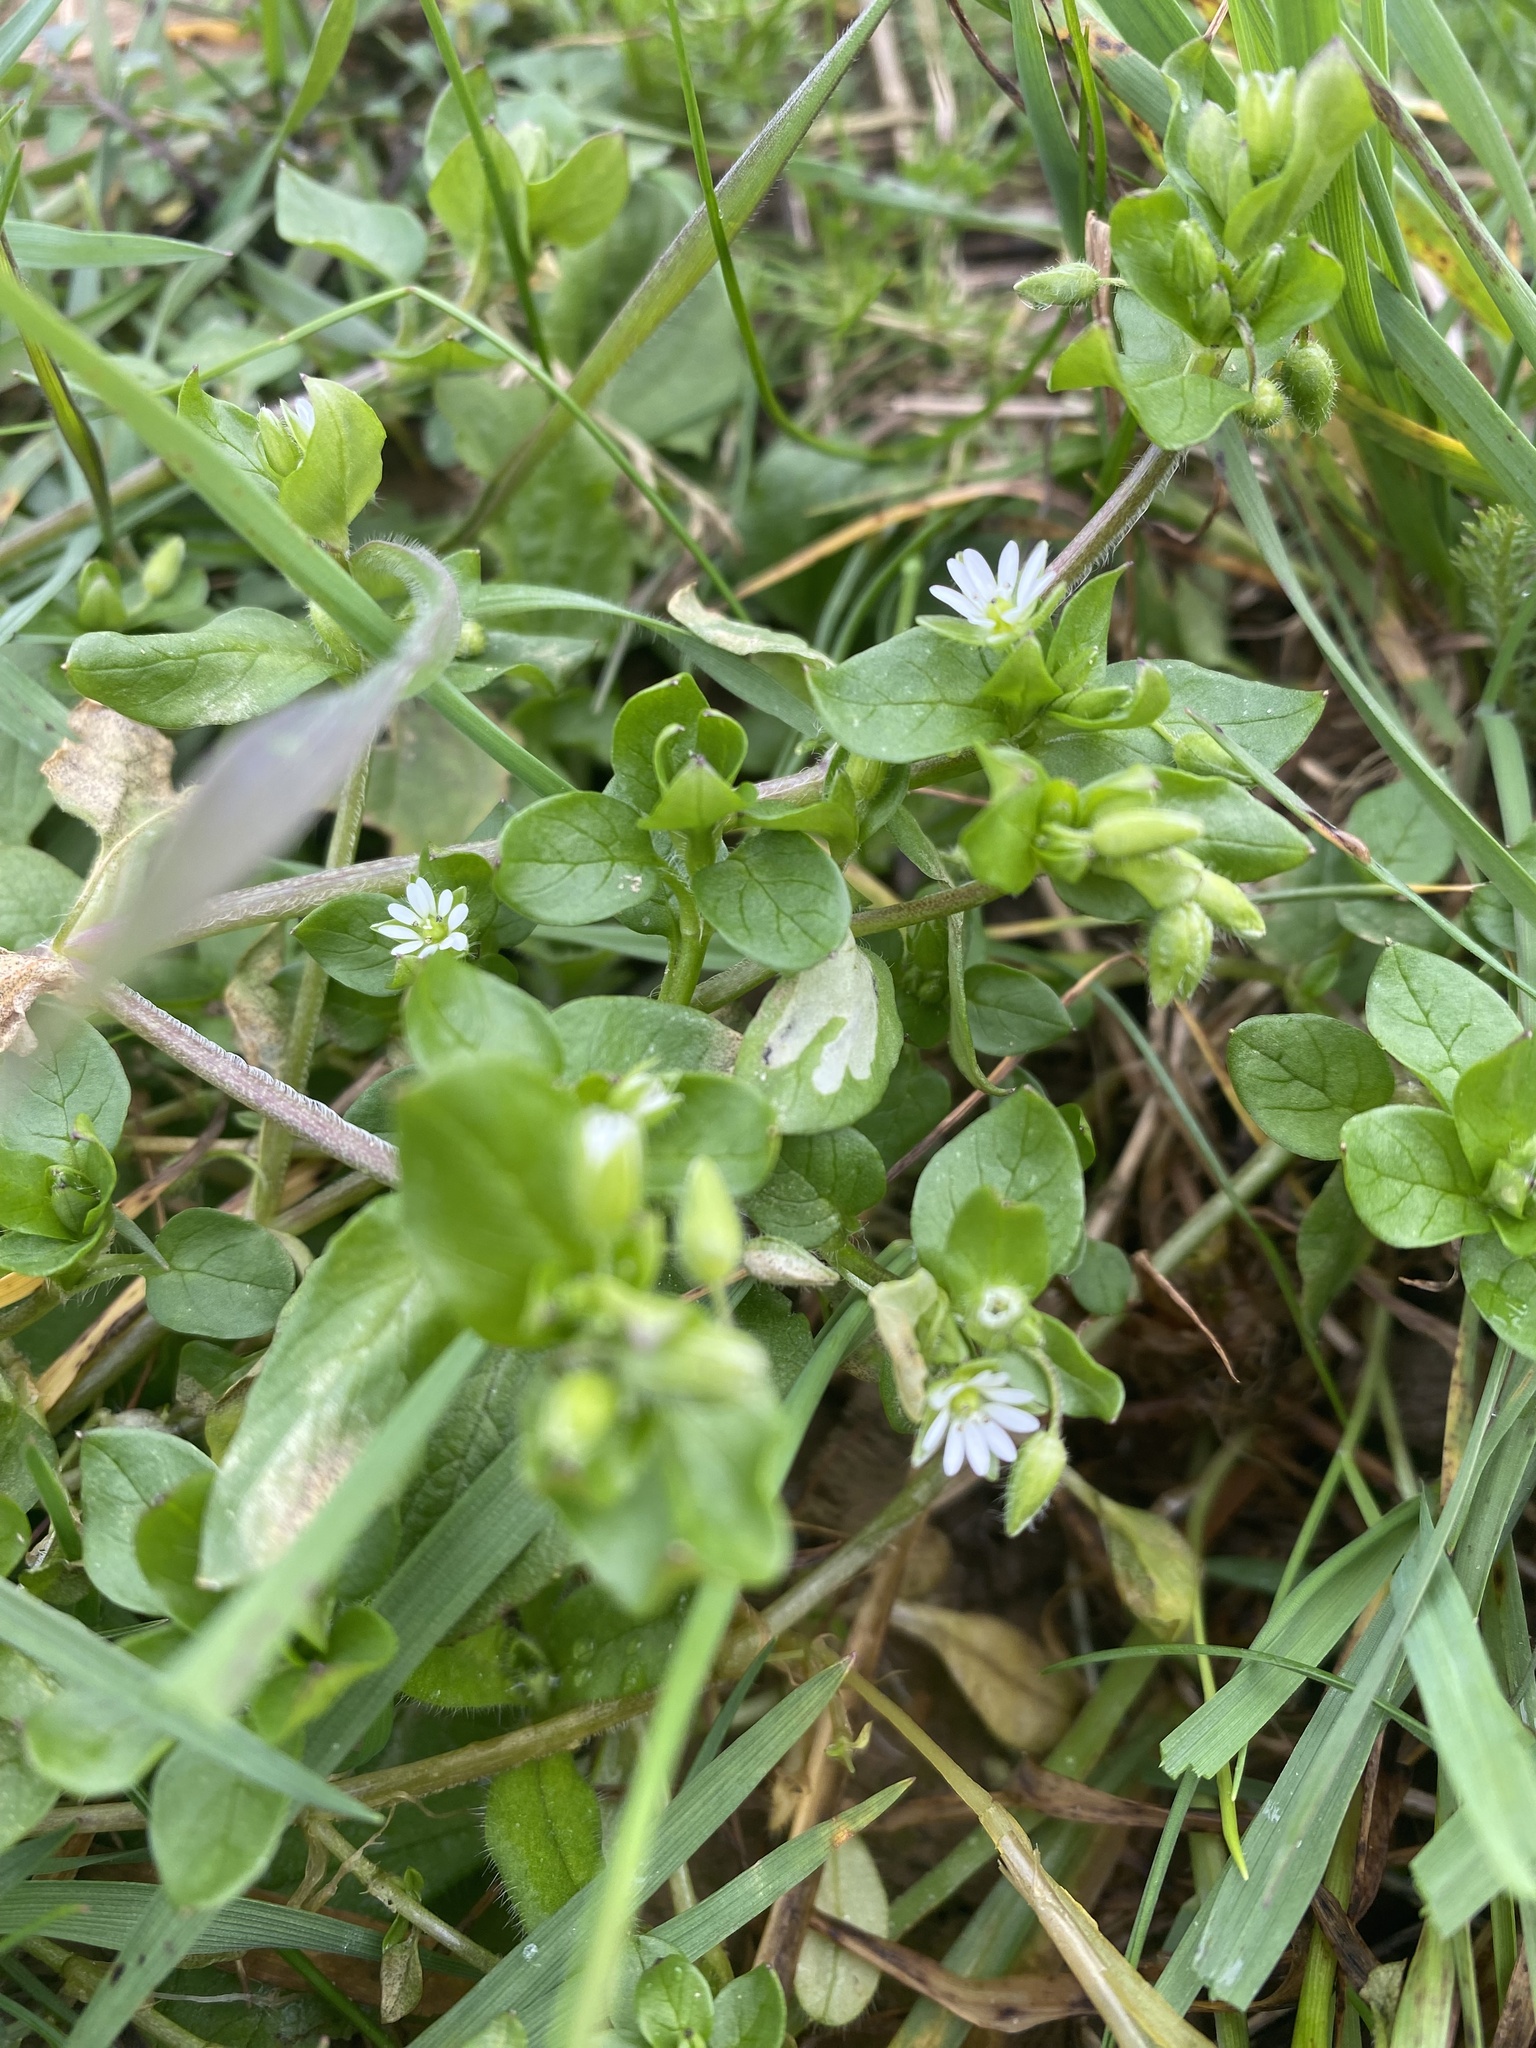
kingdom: Plantae
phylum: Tracheophyta
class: Magnoliopsida
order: Caryophyllales
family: Caryophyllaceae
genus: Stellaria
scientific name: Stellaria media
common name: Common chickweed
